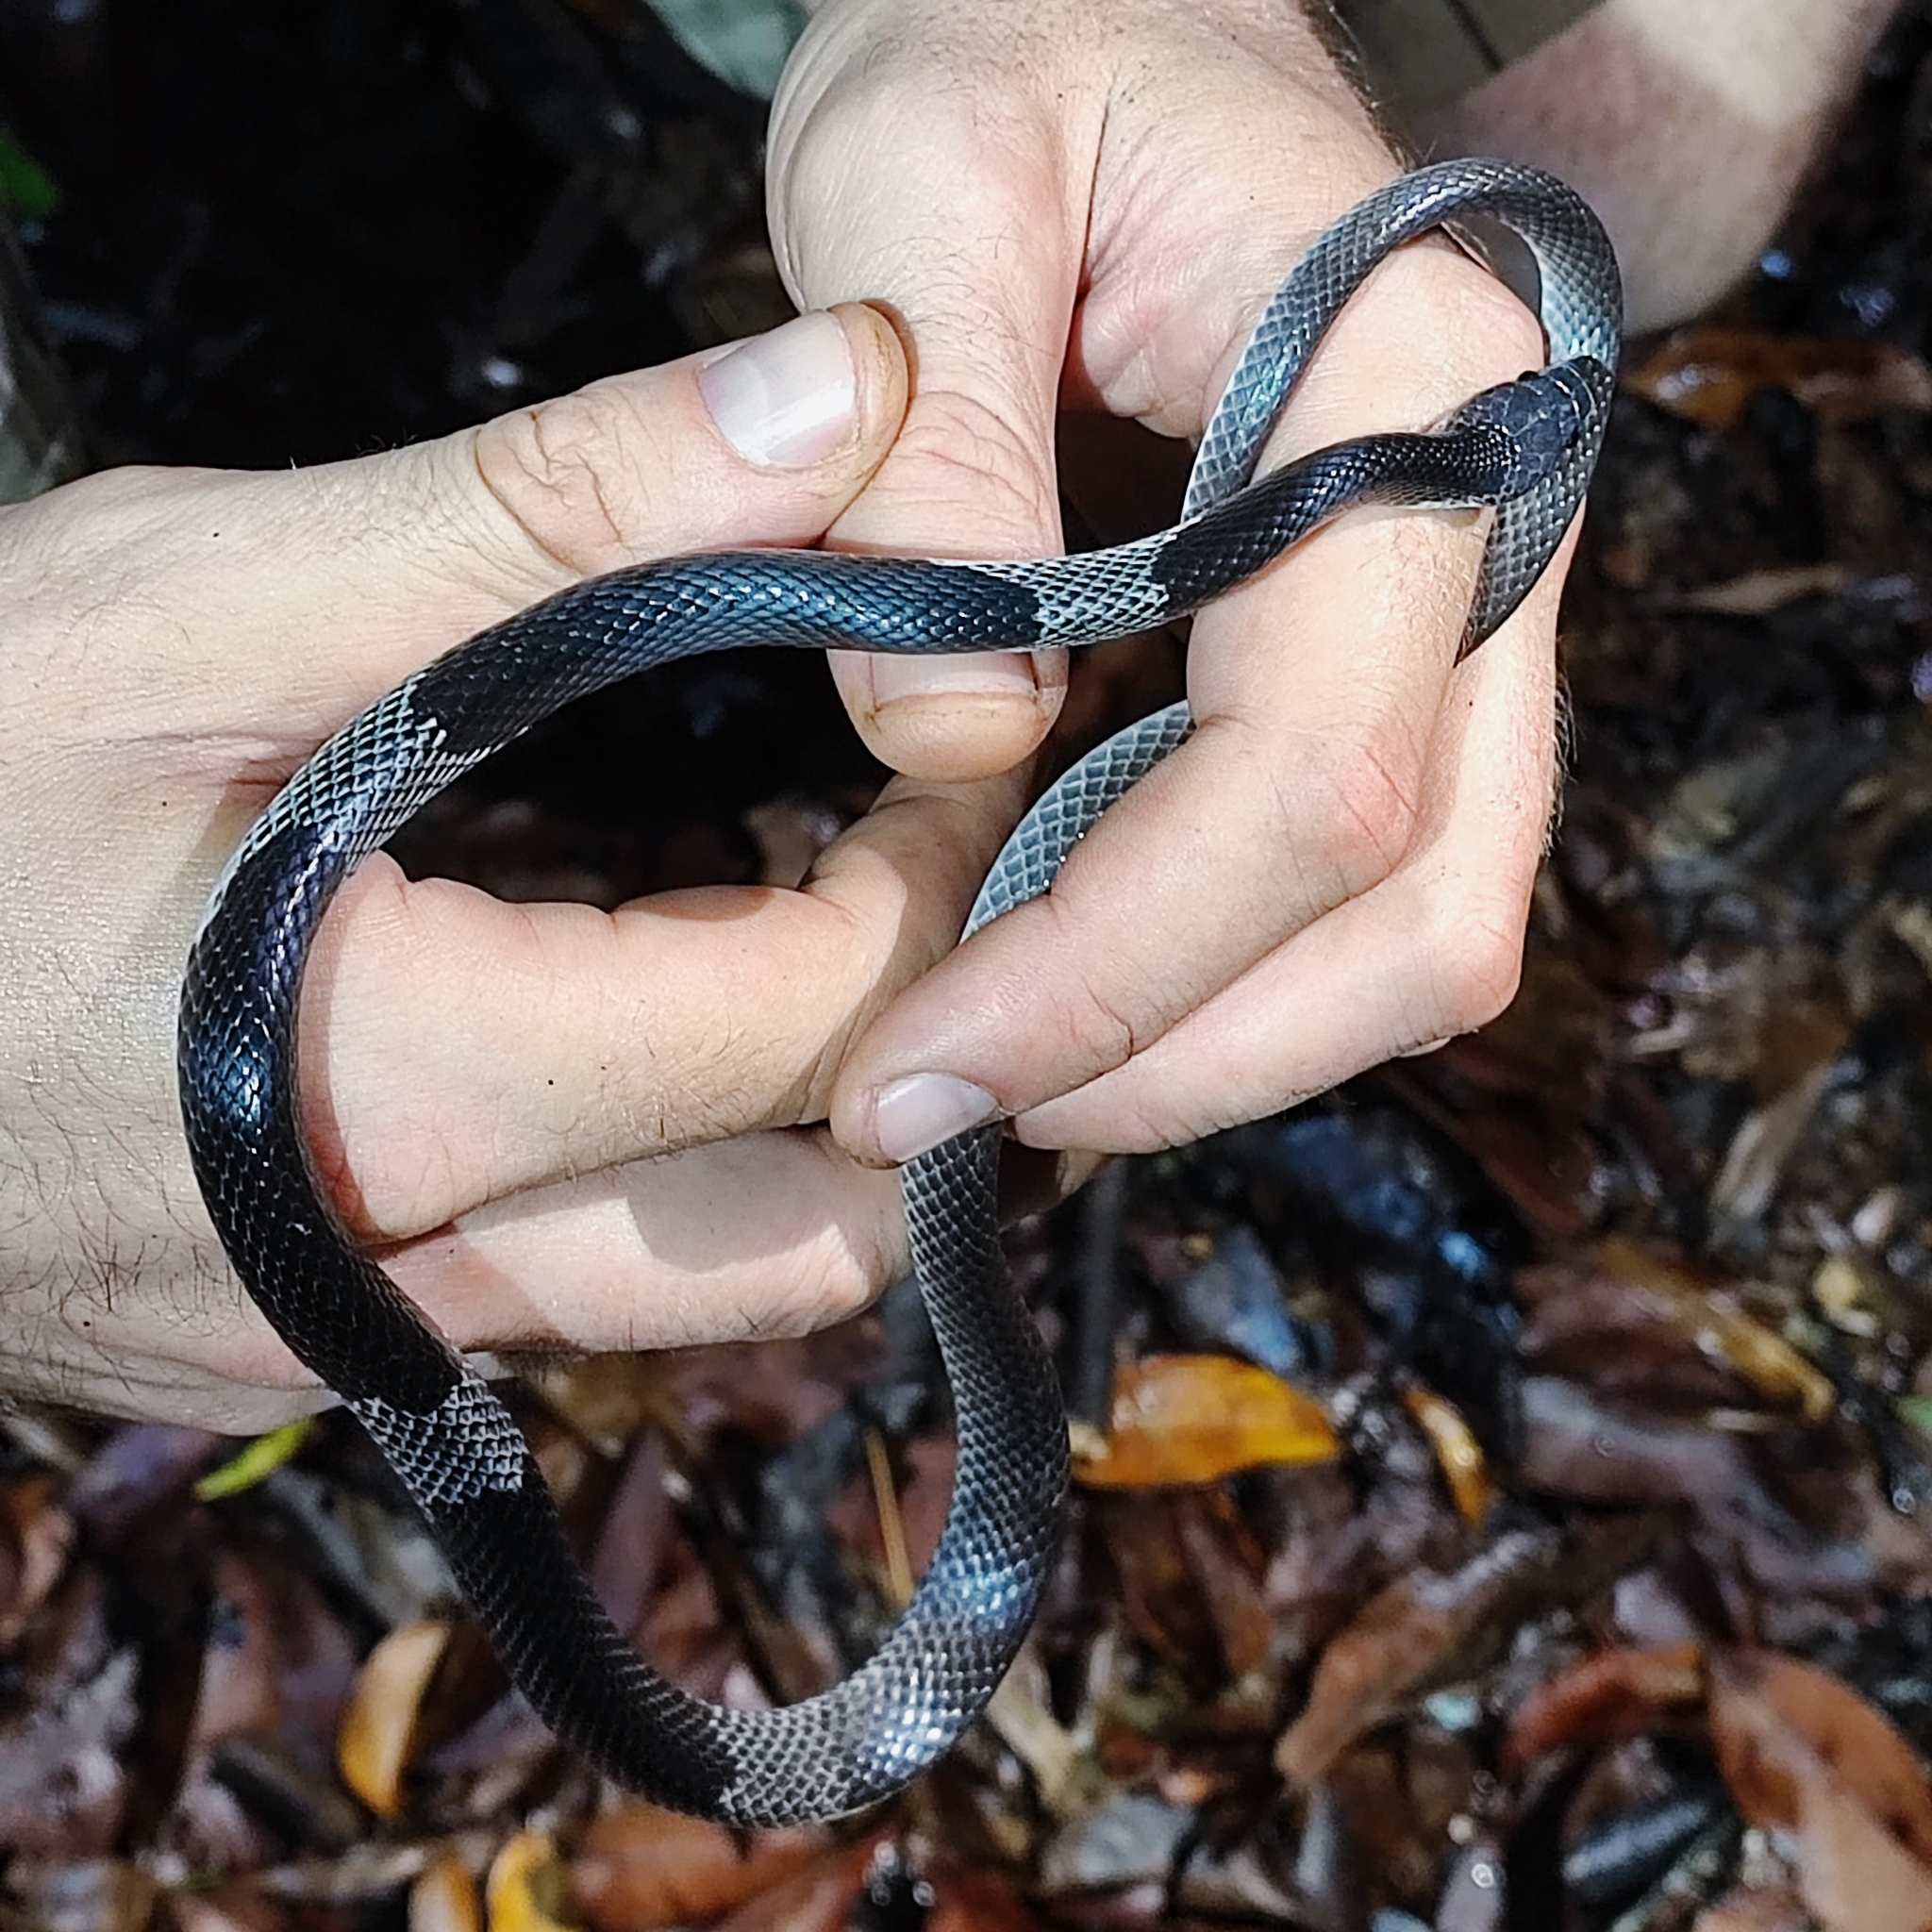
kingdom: Animalia
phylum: Chordata
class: Squamata
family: Colubridae
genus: Lycodon
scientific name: Lycodon subcinctus
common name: Malayan banded wolf snake
